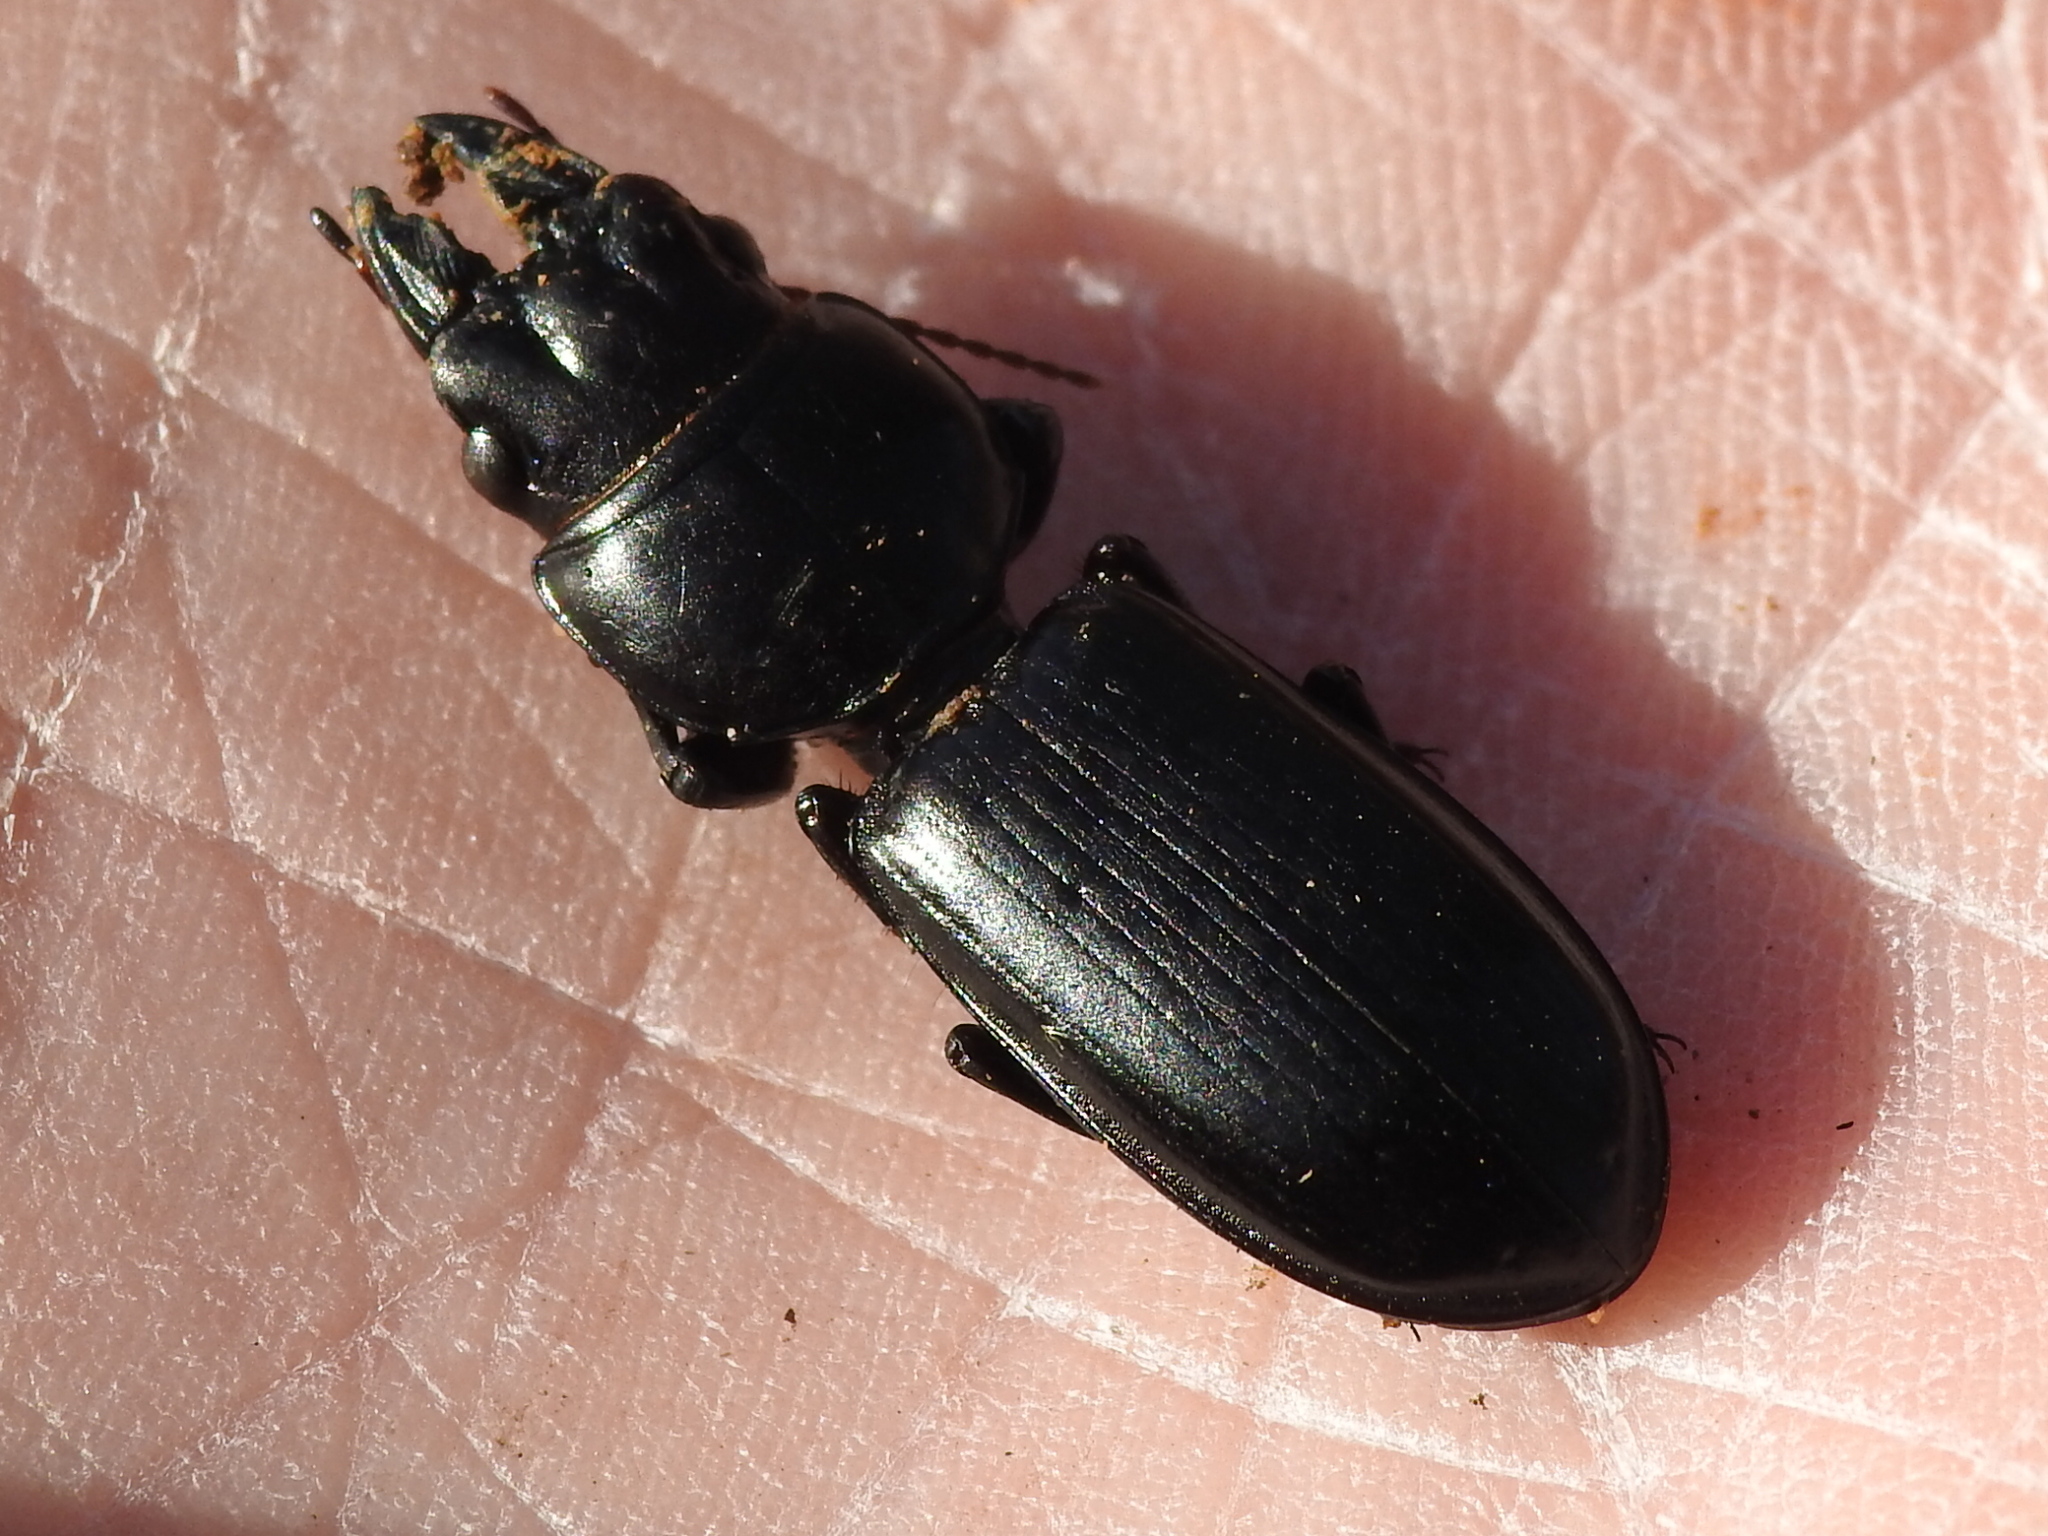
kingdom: Animalia
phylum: Arthropoda
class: Insecta
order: Coleoptera
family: Carabidae
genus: Scarites
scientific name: Scarites subterraneus
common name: Big-headed ground beetle
